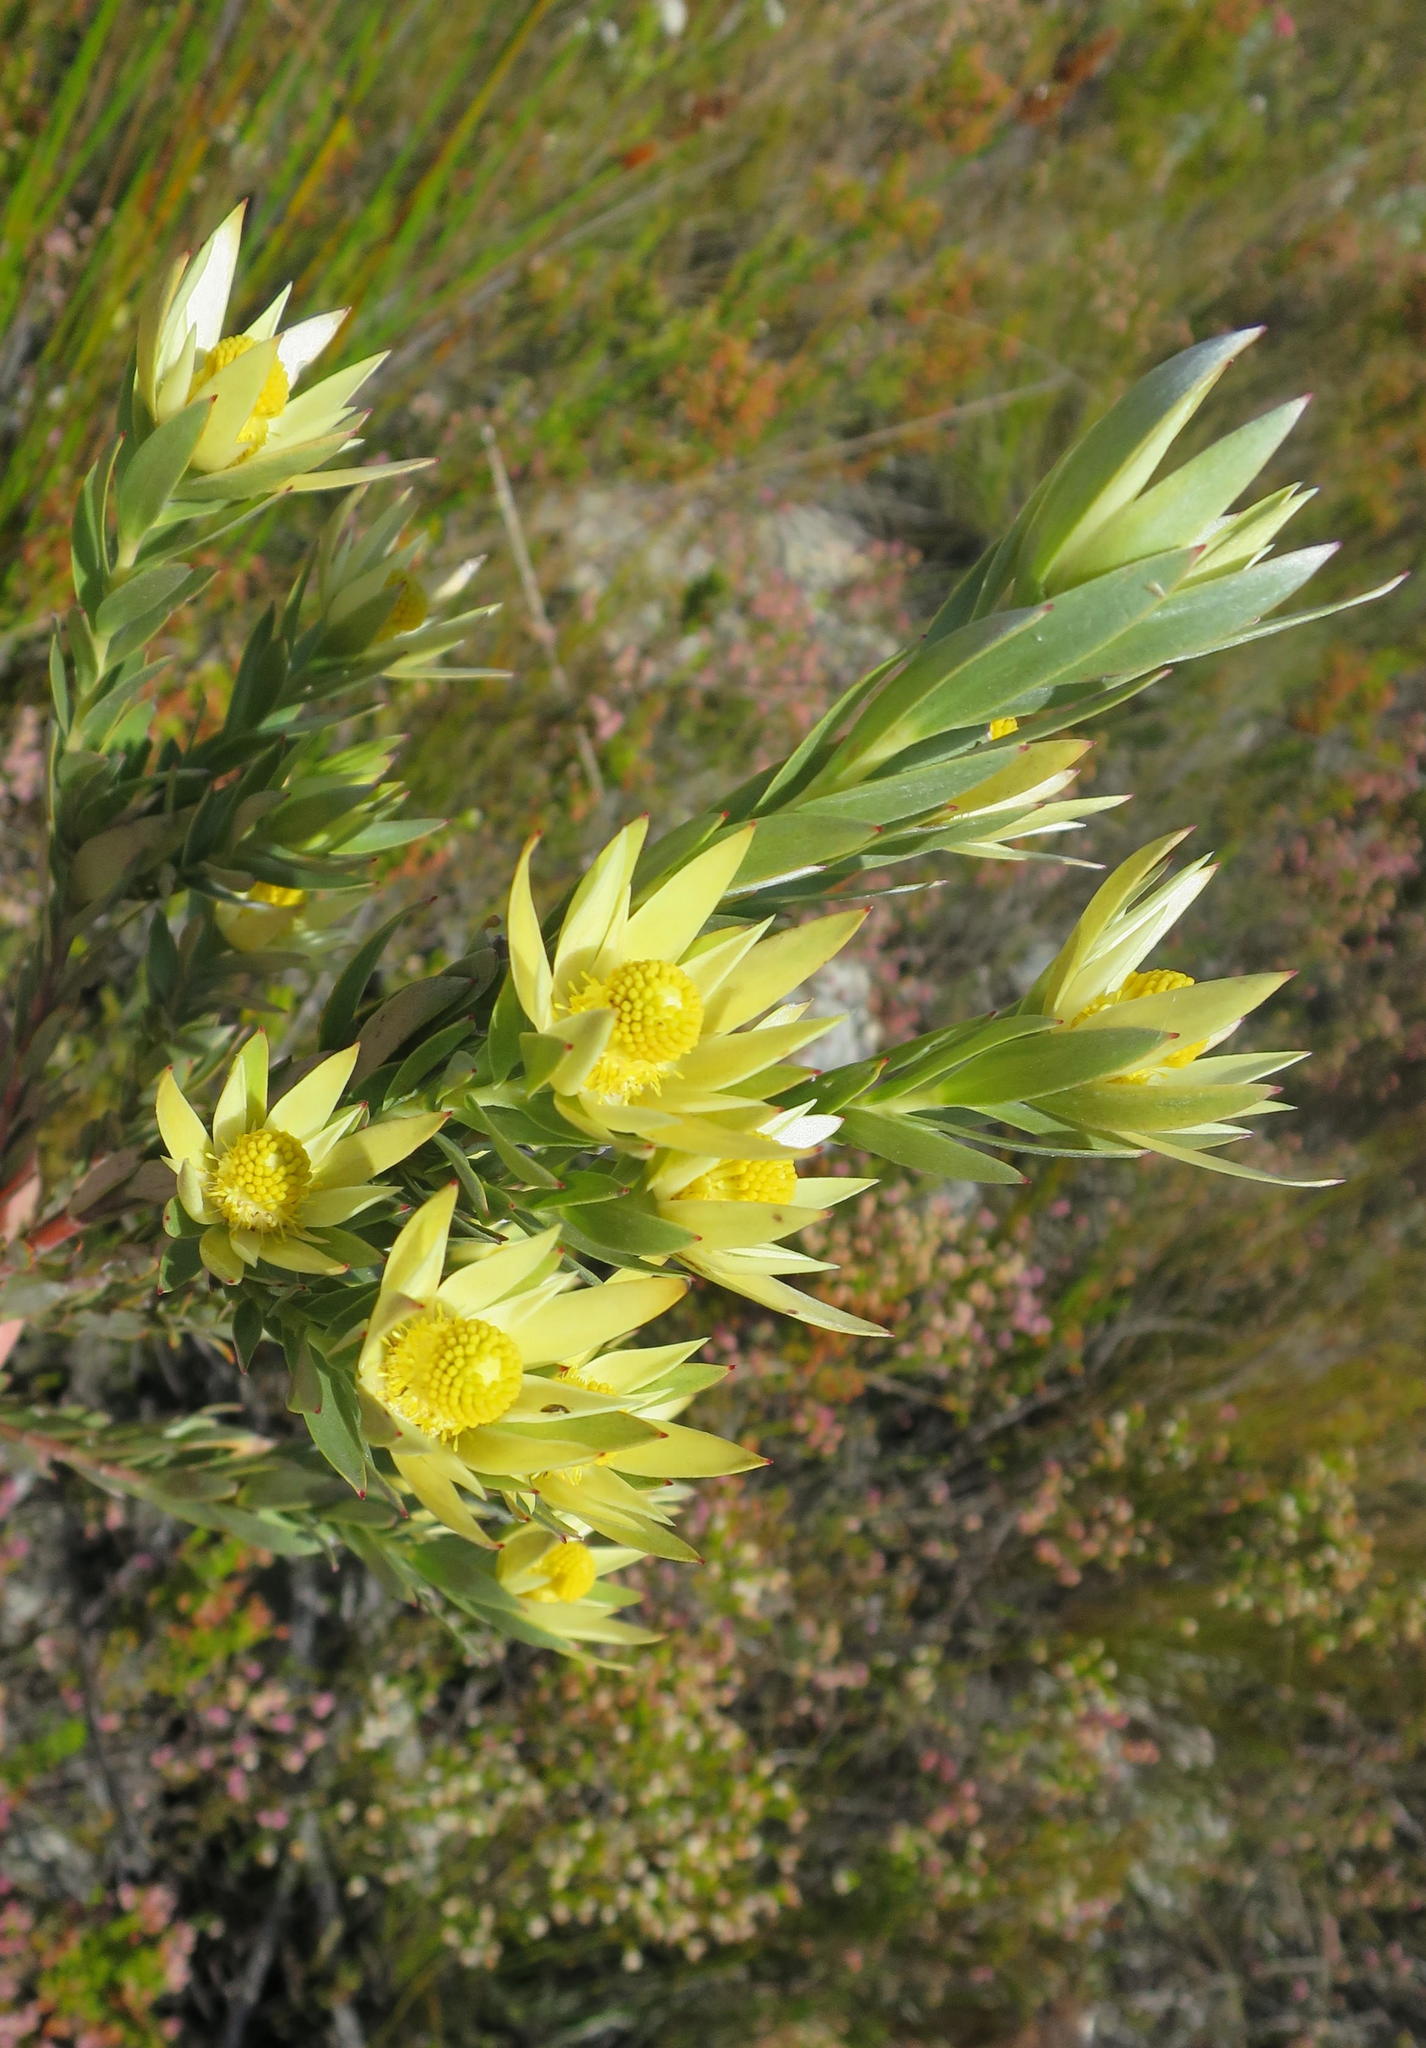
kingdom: Plantae
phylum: Tracheophyta
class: Magnoliopsida
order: Proteales
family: Proteaceae
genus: Leucadendron
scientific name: Leucadendron uliginosum
